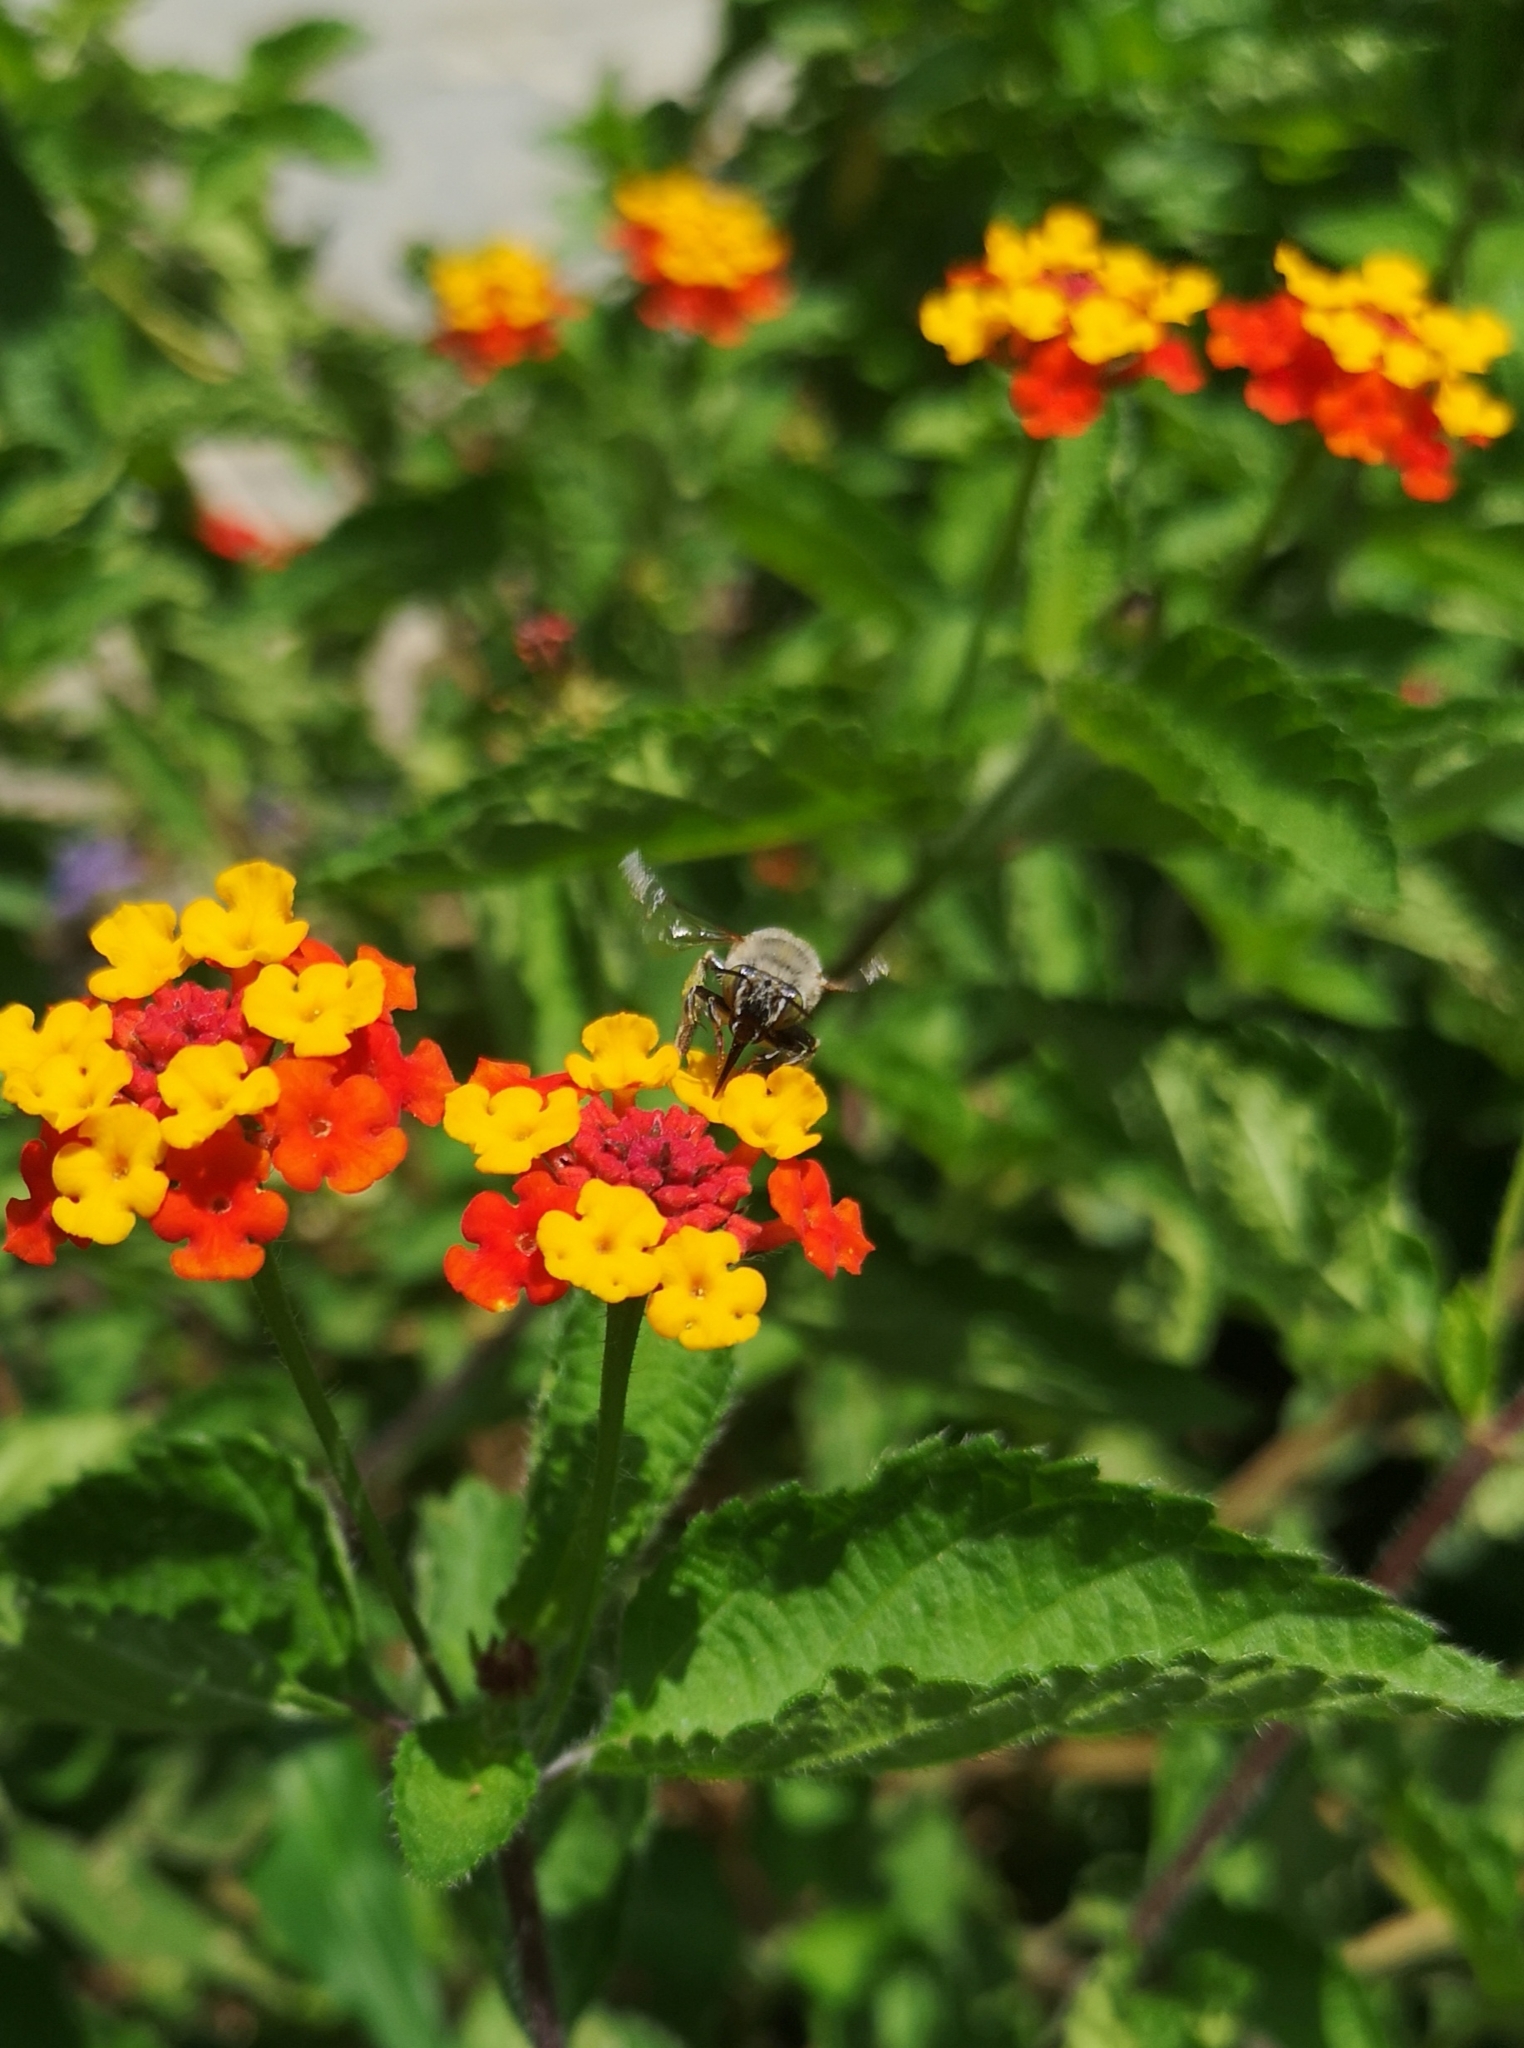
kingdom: Animalia
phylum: Arthropoda
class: Insecta
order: Hymenoptera
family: Apidae
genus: Anthophora
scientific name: Anthophora californica
